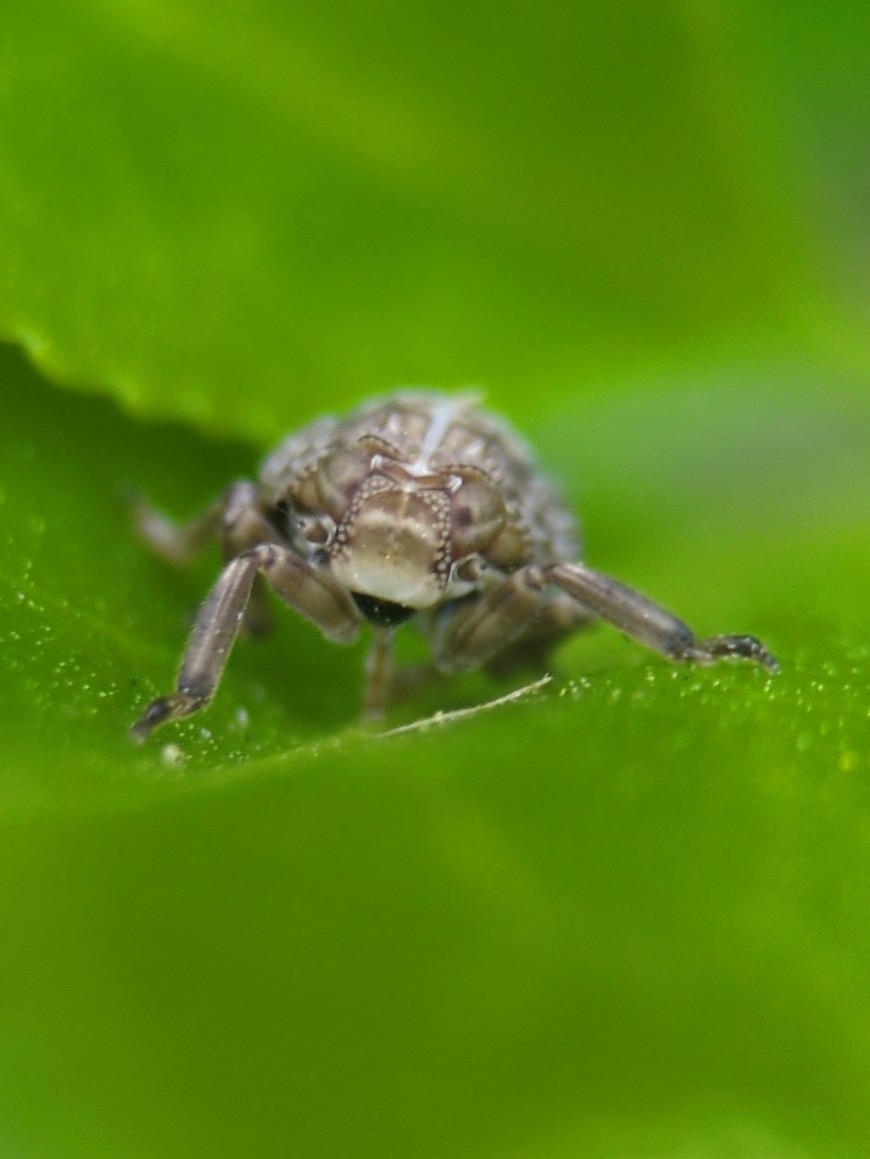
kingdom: Animalia
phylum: Arthropoda
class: Insecta
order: Hemiptera
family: Issidae
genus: Issus
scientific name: Issus coleoptratus
